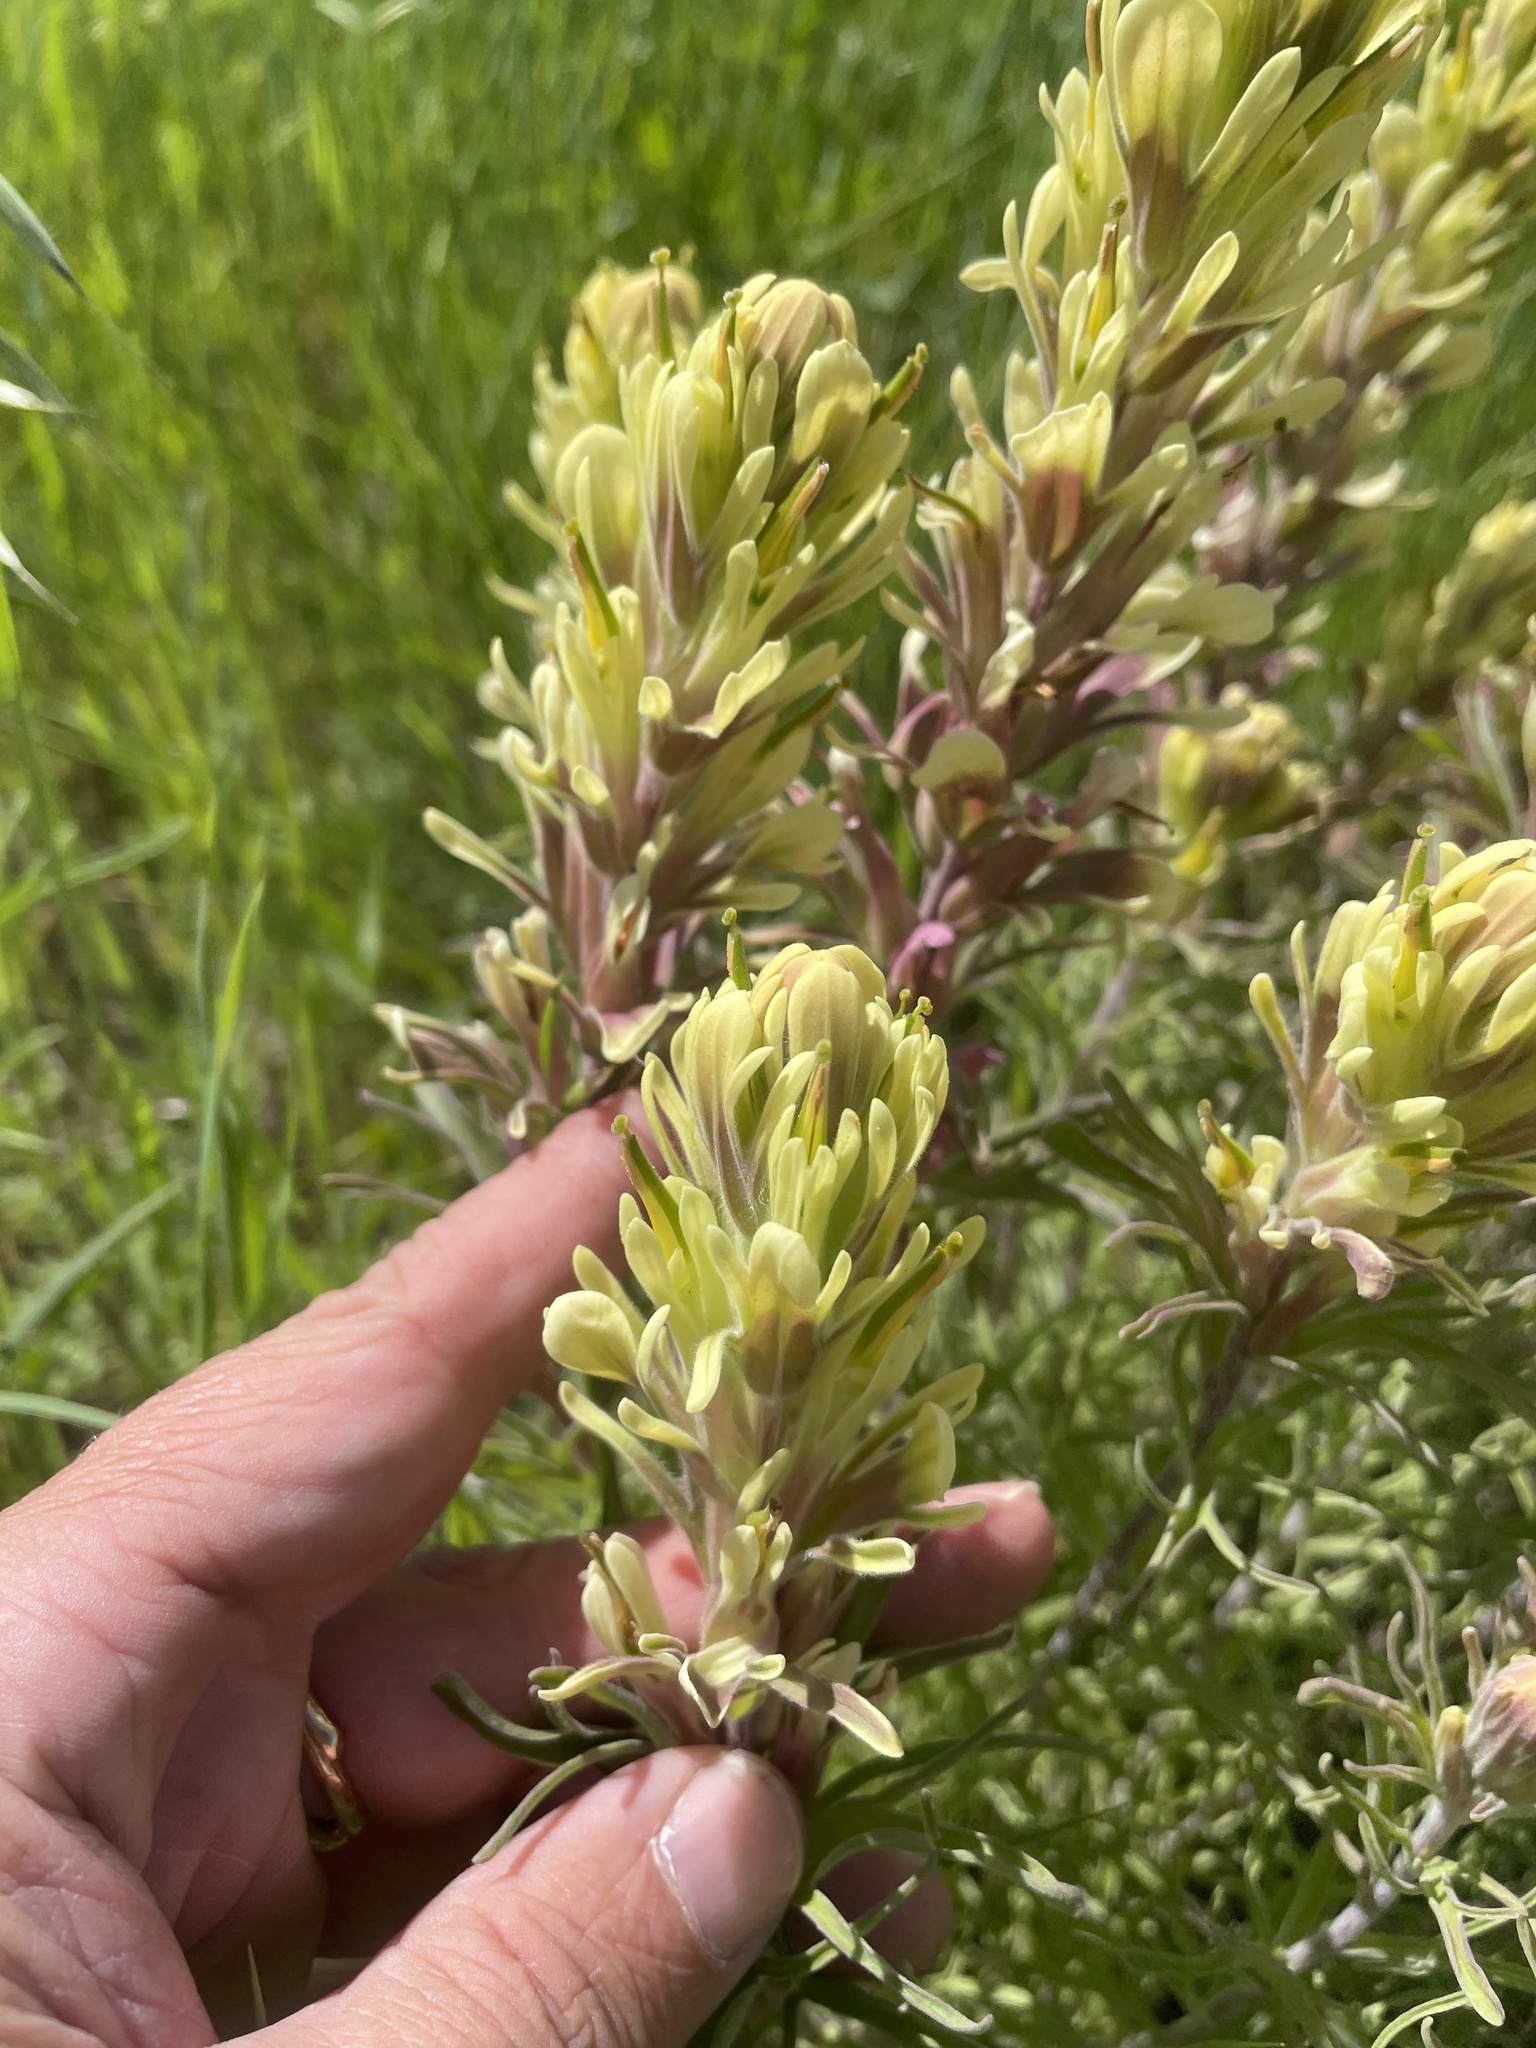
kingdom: Plantae
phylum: Tracheophyta
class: Magnoliopsida
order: Lamiales
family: Orobanchaceae
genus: Castilleja
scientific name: Castilleja citrina
